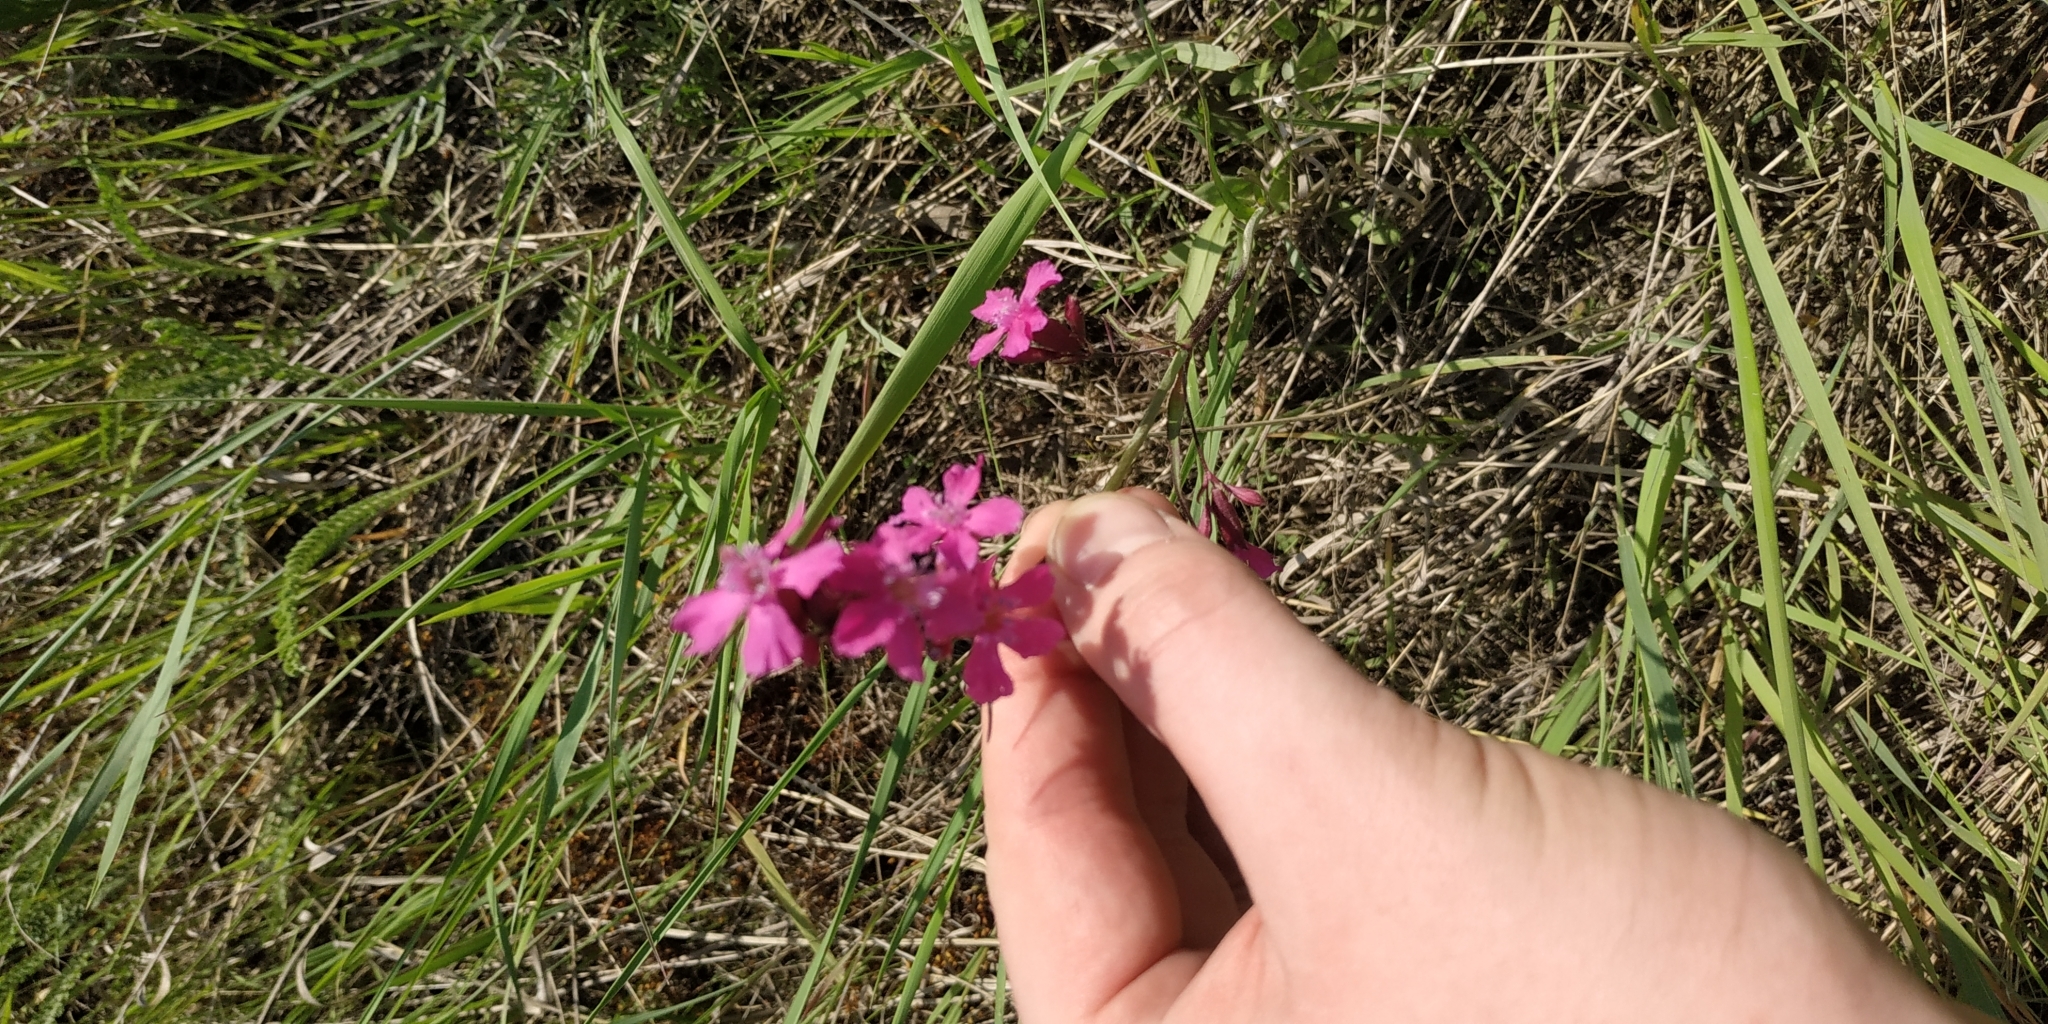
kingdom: Plantae
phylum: Tracheophyta
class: Magnoliopsida
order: Caryophyllales
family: Caryophyllaceae
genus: Viscaria
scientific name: Viscaria vulgaris
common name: Clammy campion
